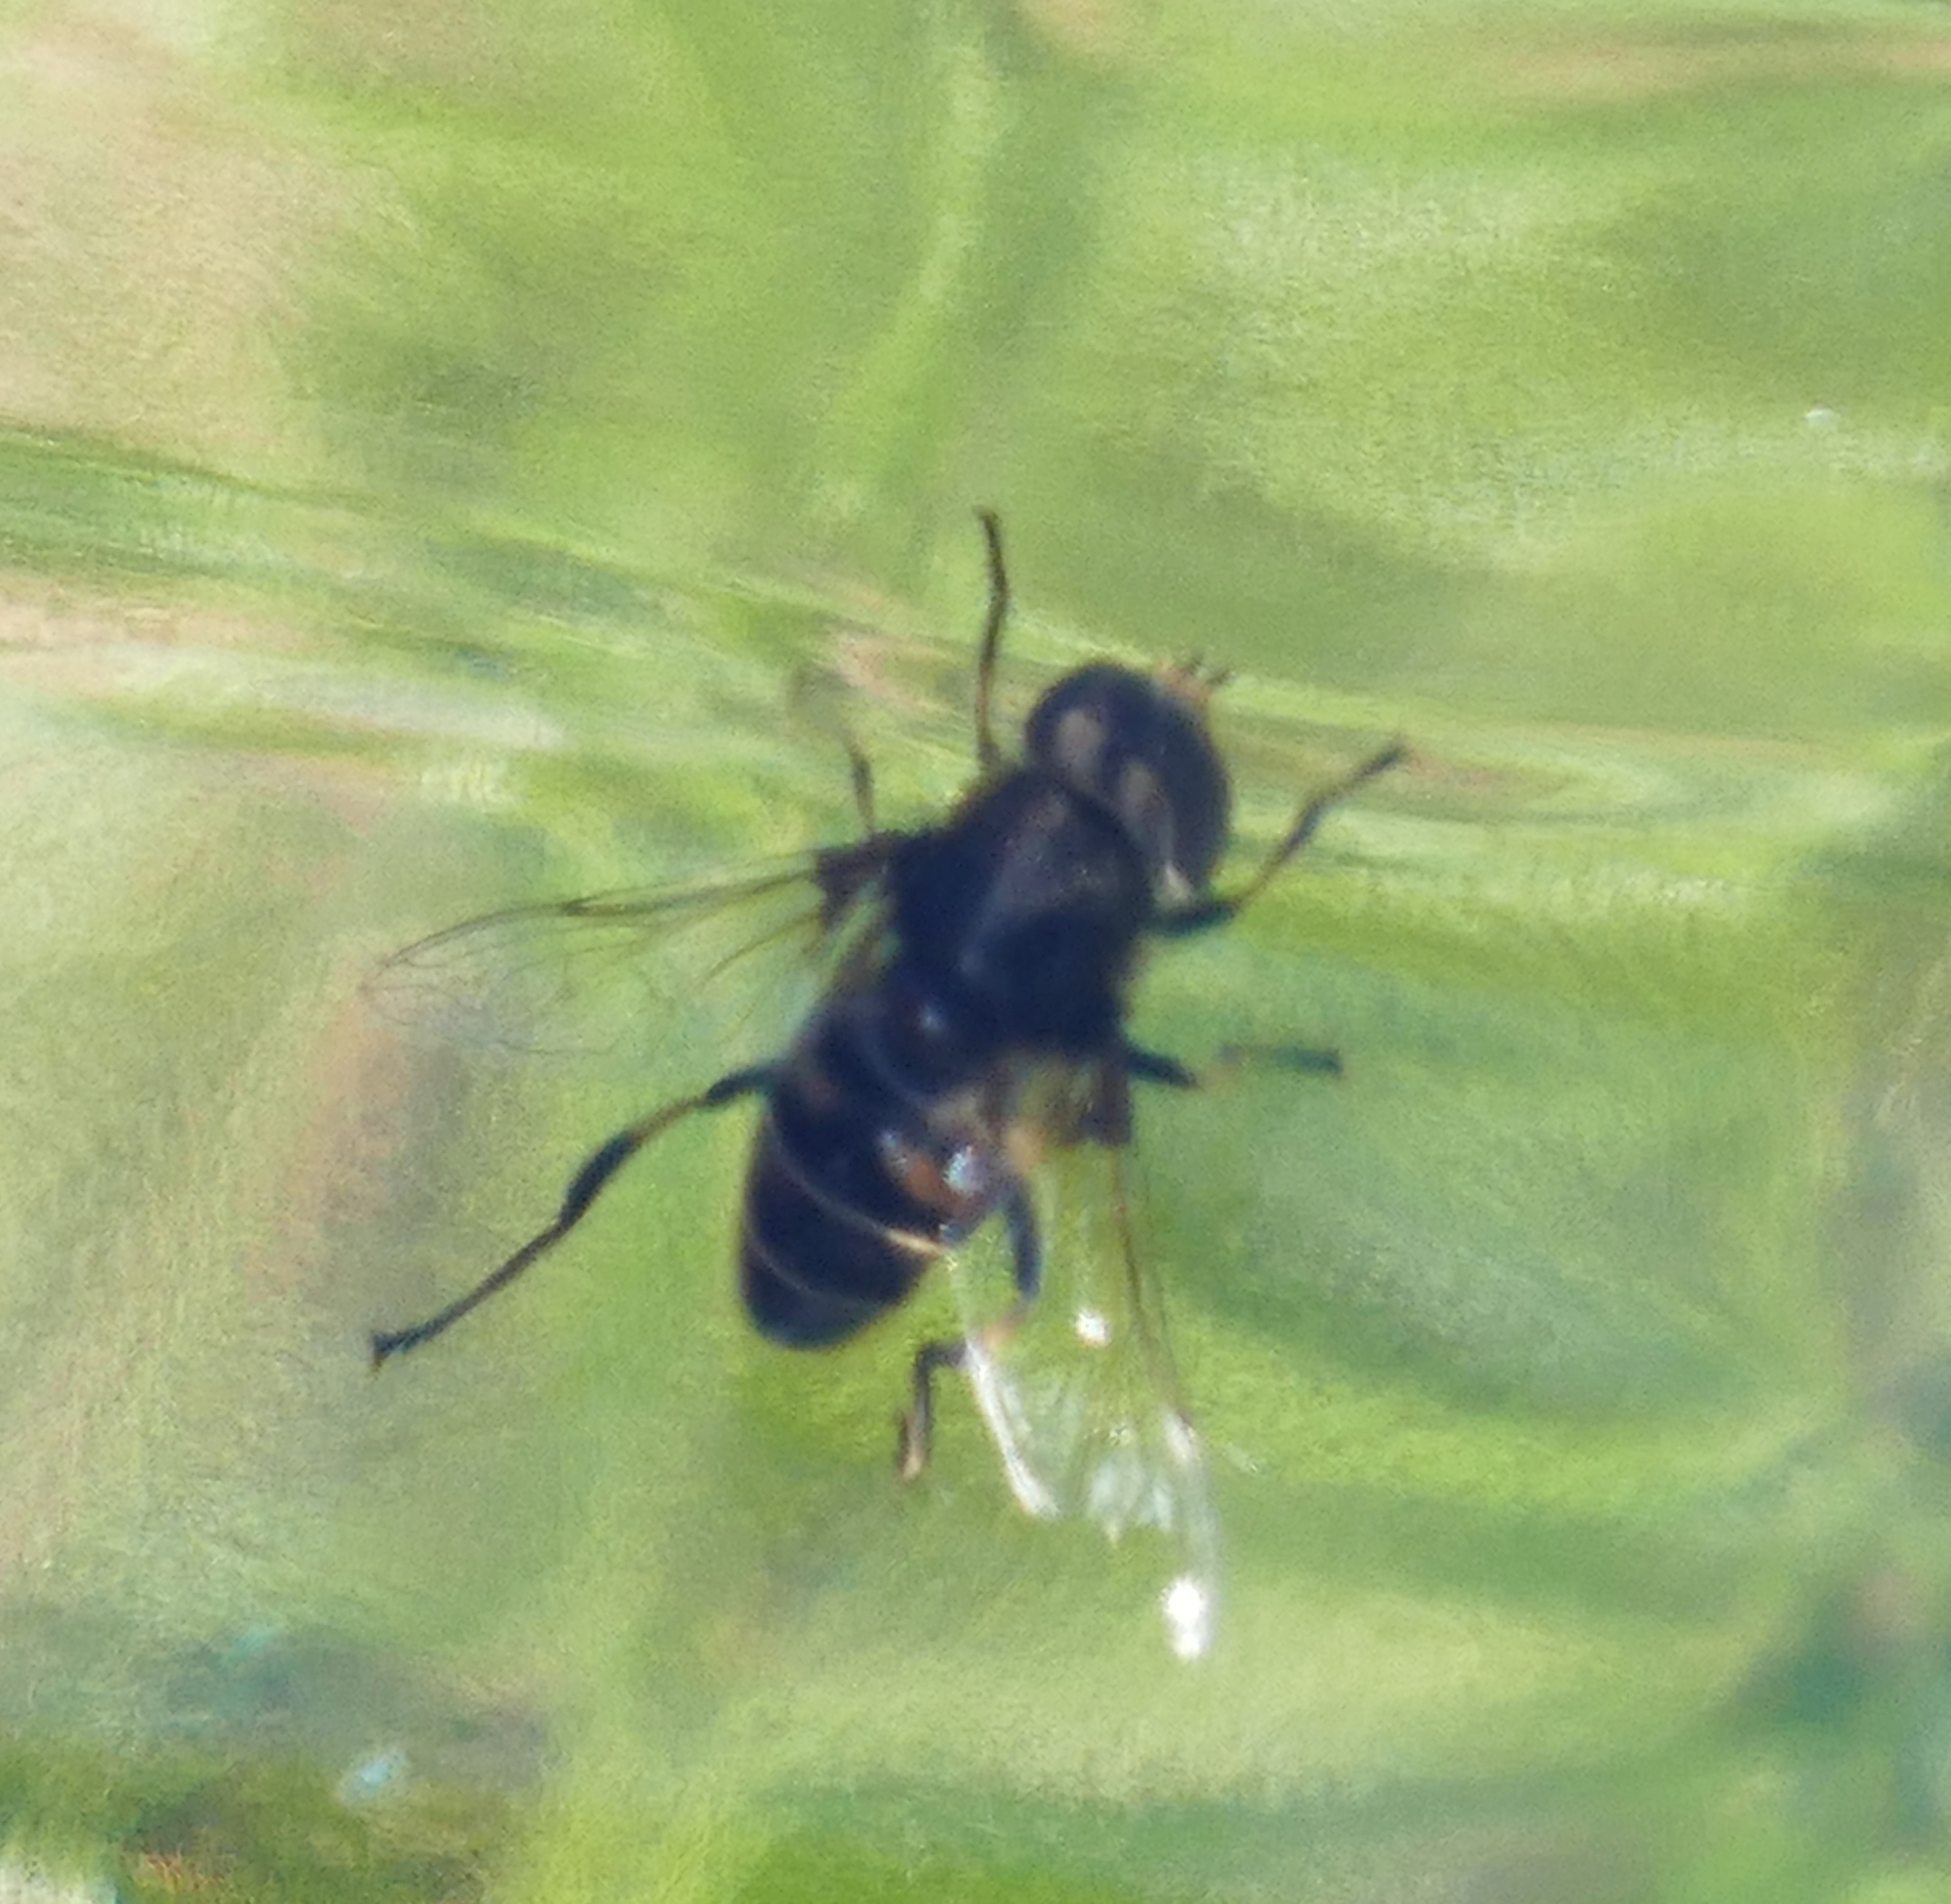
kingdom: Animalia
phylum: Arthropoda
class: Insecta
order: Diptera
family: Syrphidae
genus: Eristalis
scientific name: Eristalis dimidiata
